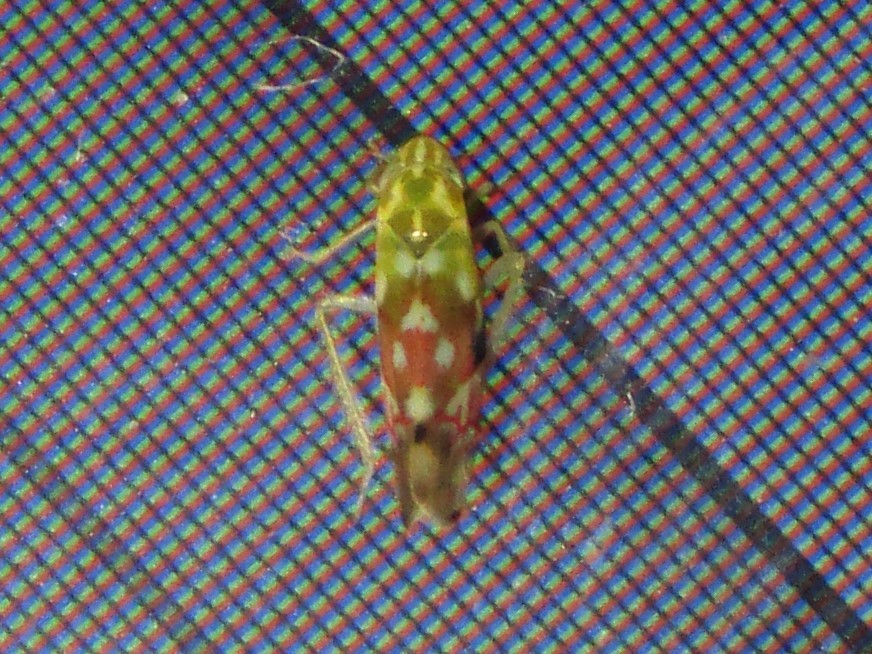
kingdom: Animalia
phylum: Arthropoda
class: Insecta
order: Hemiptera
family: Cicadellidae
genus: Erythroneura
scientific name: Erythroneura reflecta
